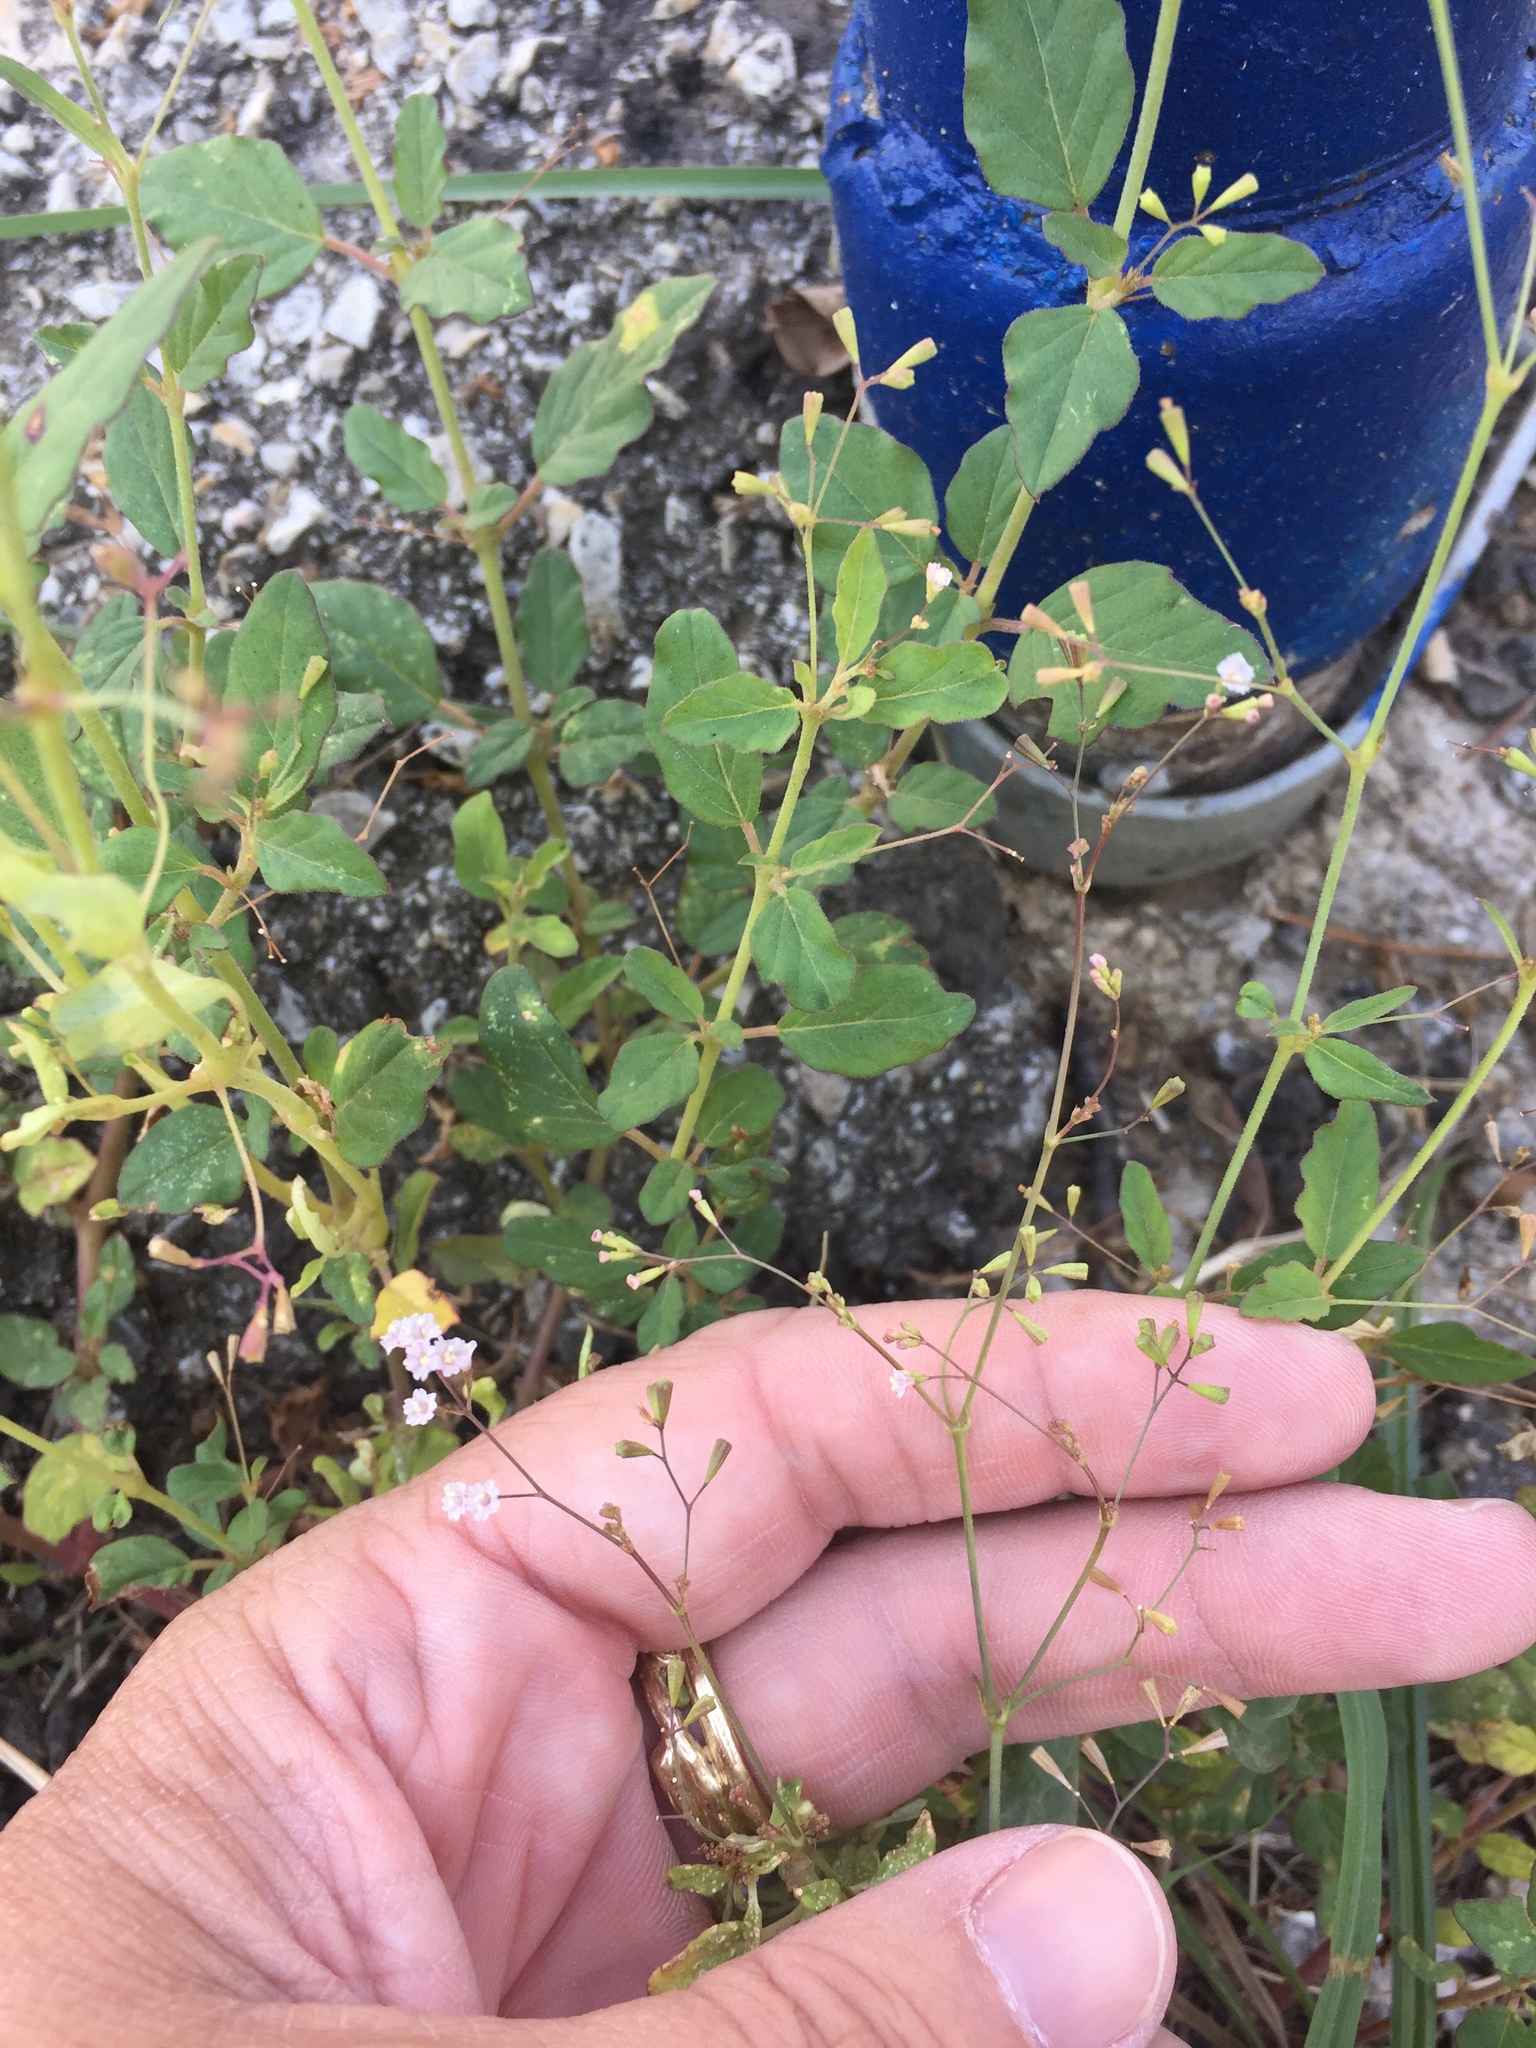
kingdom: Plantae
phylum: Tracheophyta
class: Magnoliopsida
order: Caryophyllales
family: Nyctaginaceae
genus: Boerhavia
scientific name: Boerhavia erecta
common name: Erect spiderling
